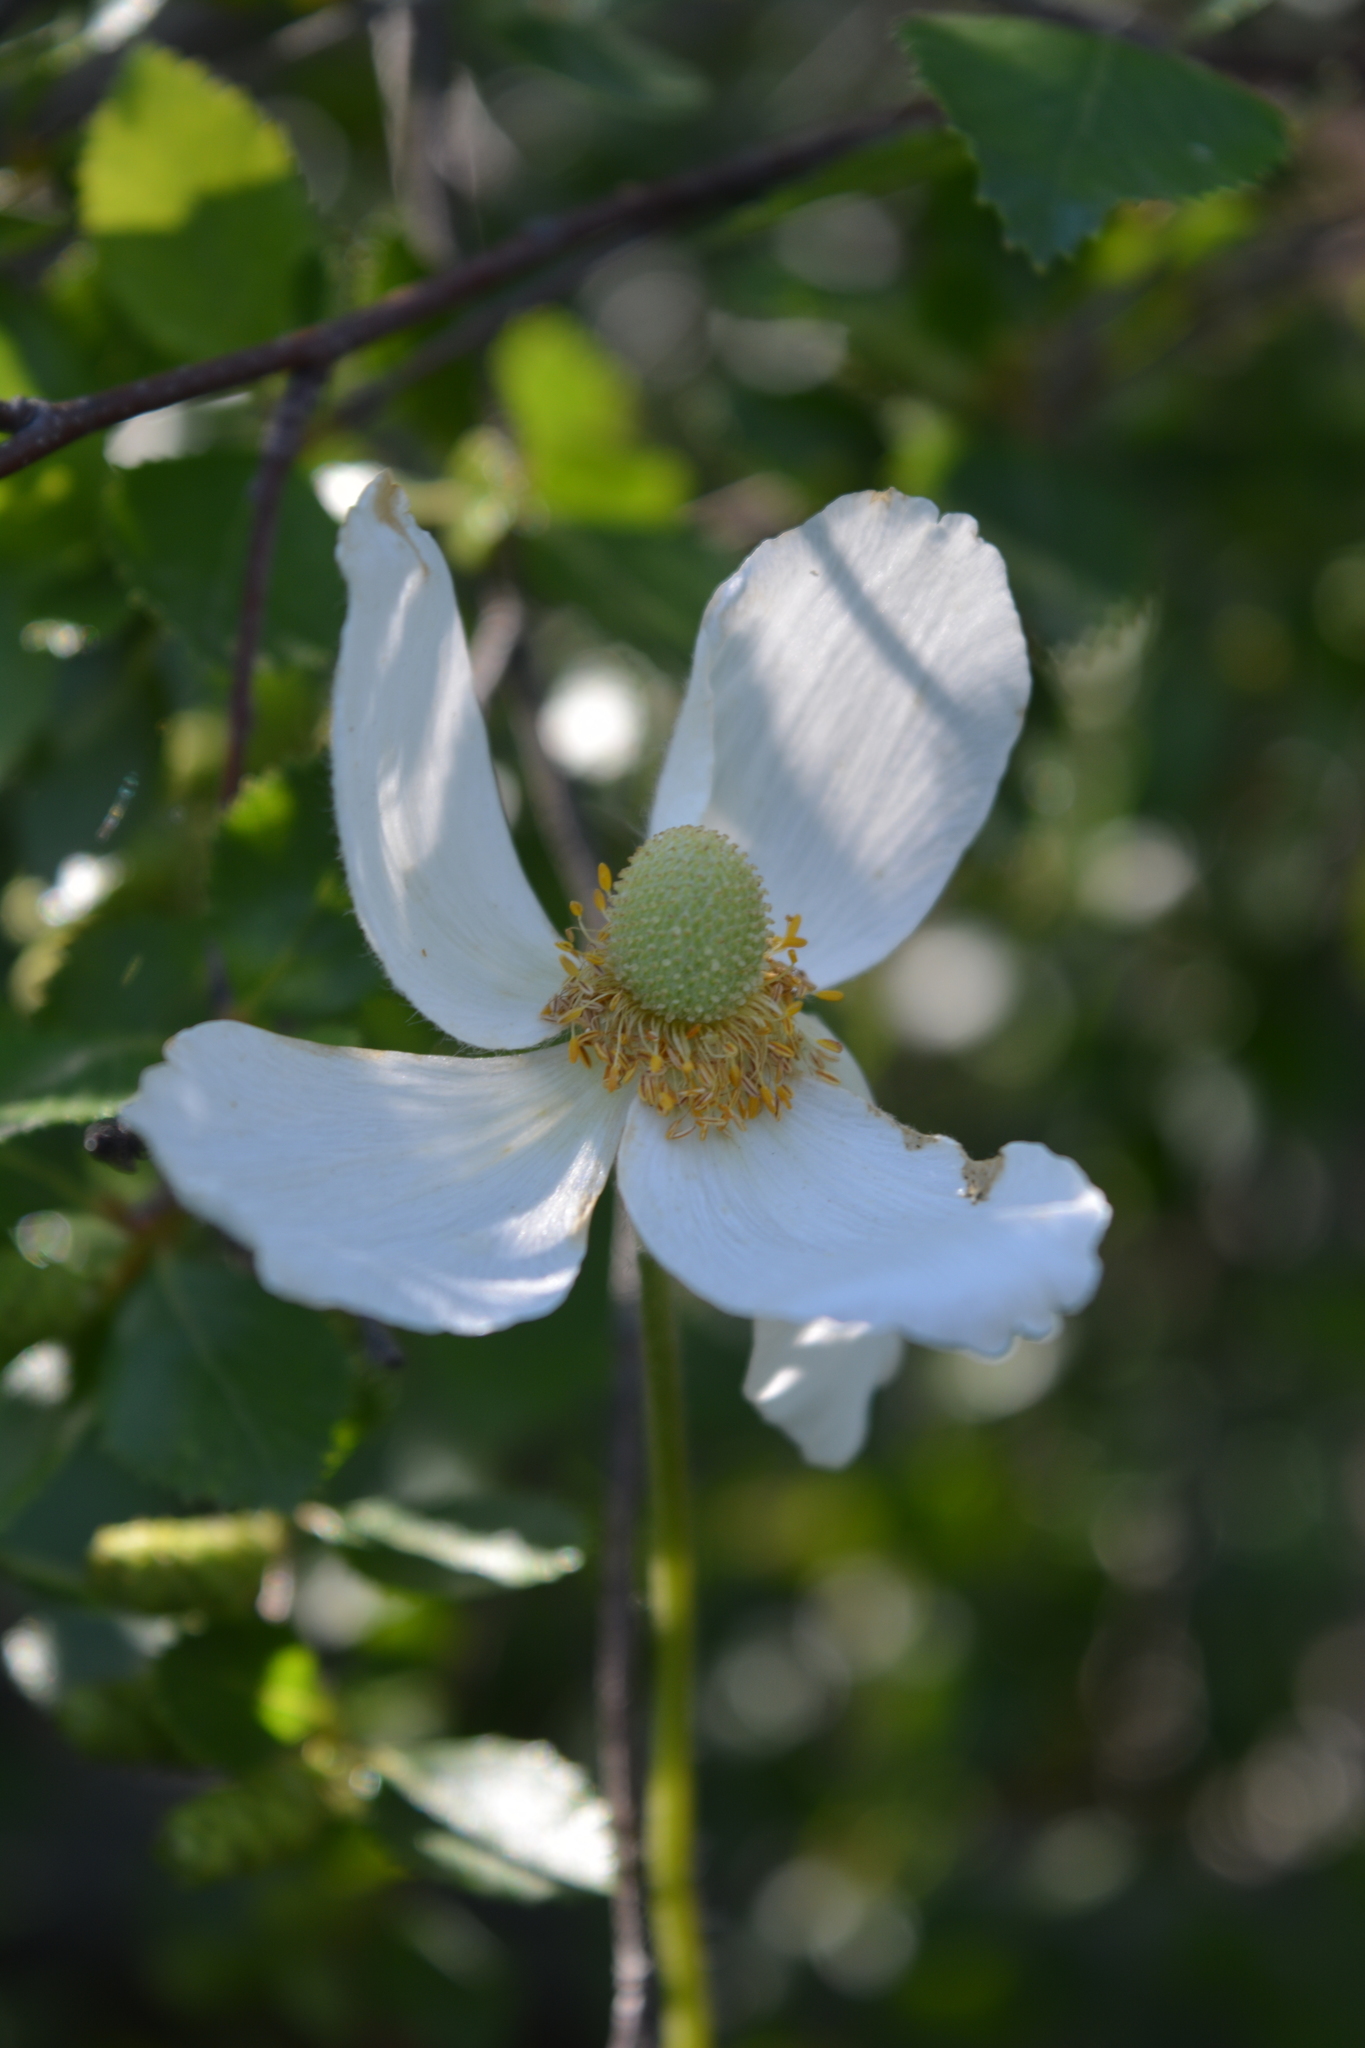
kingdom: Plantae
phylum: Tracheophyta
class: Magnoliopsida
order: Ranunculales
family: Ranunculaceae
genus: Anemone
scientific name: Anemone sylvestris
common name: Snowdrop anemone
